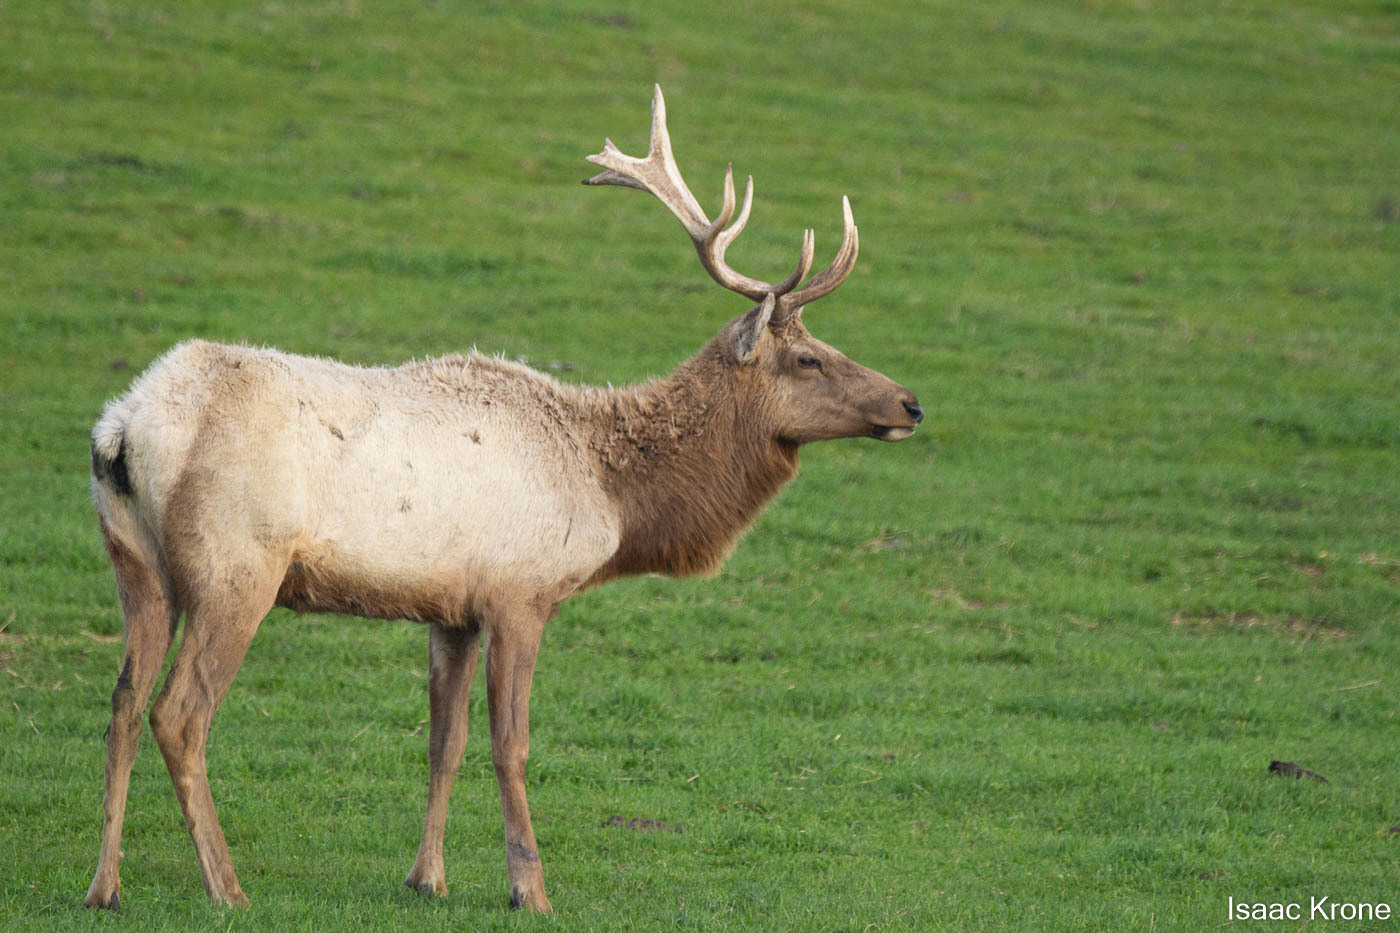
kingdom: Animalia
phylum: Chordata
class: Mammalia
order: Artiodactyla
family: Cervidae
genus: Cervus
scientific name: Cervus elaphus
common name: Red deer
